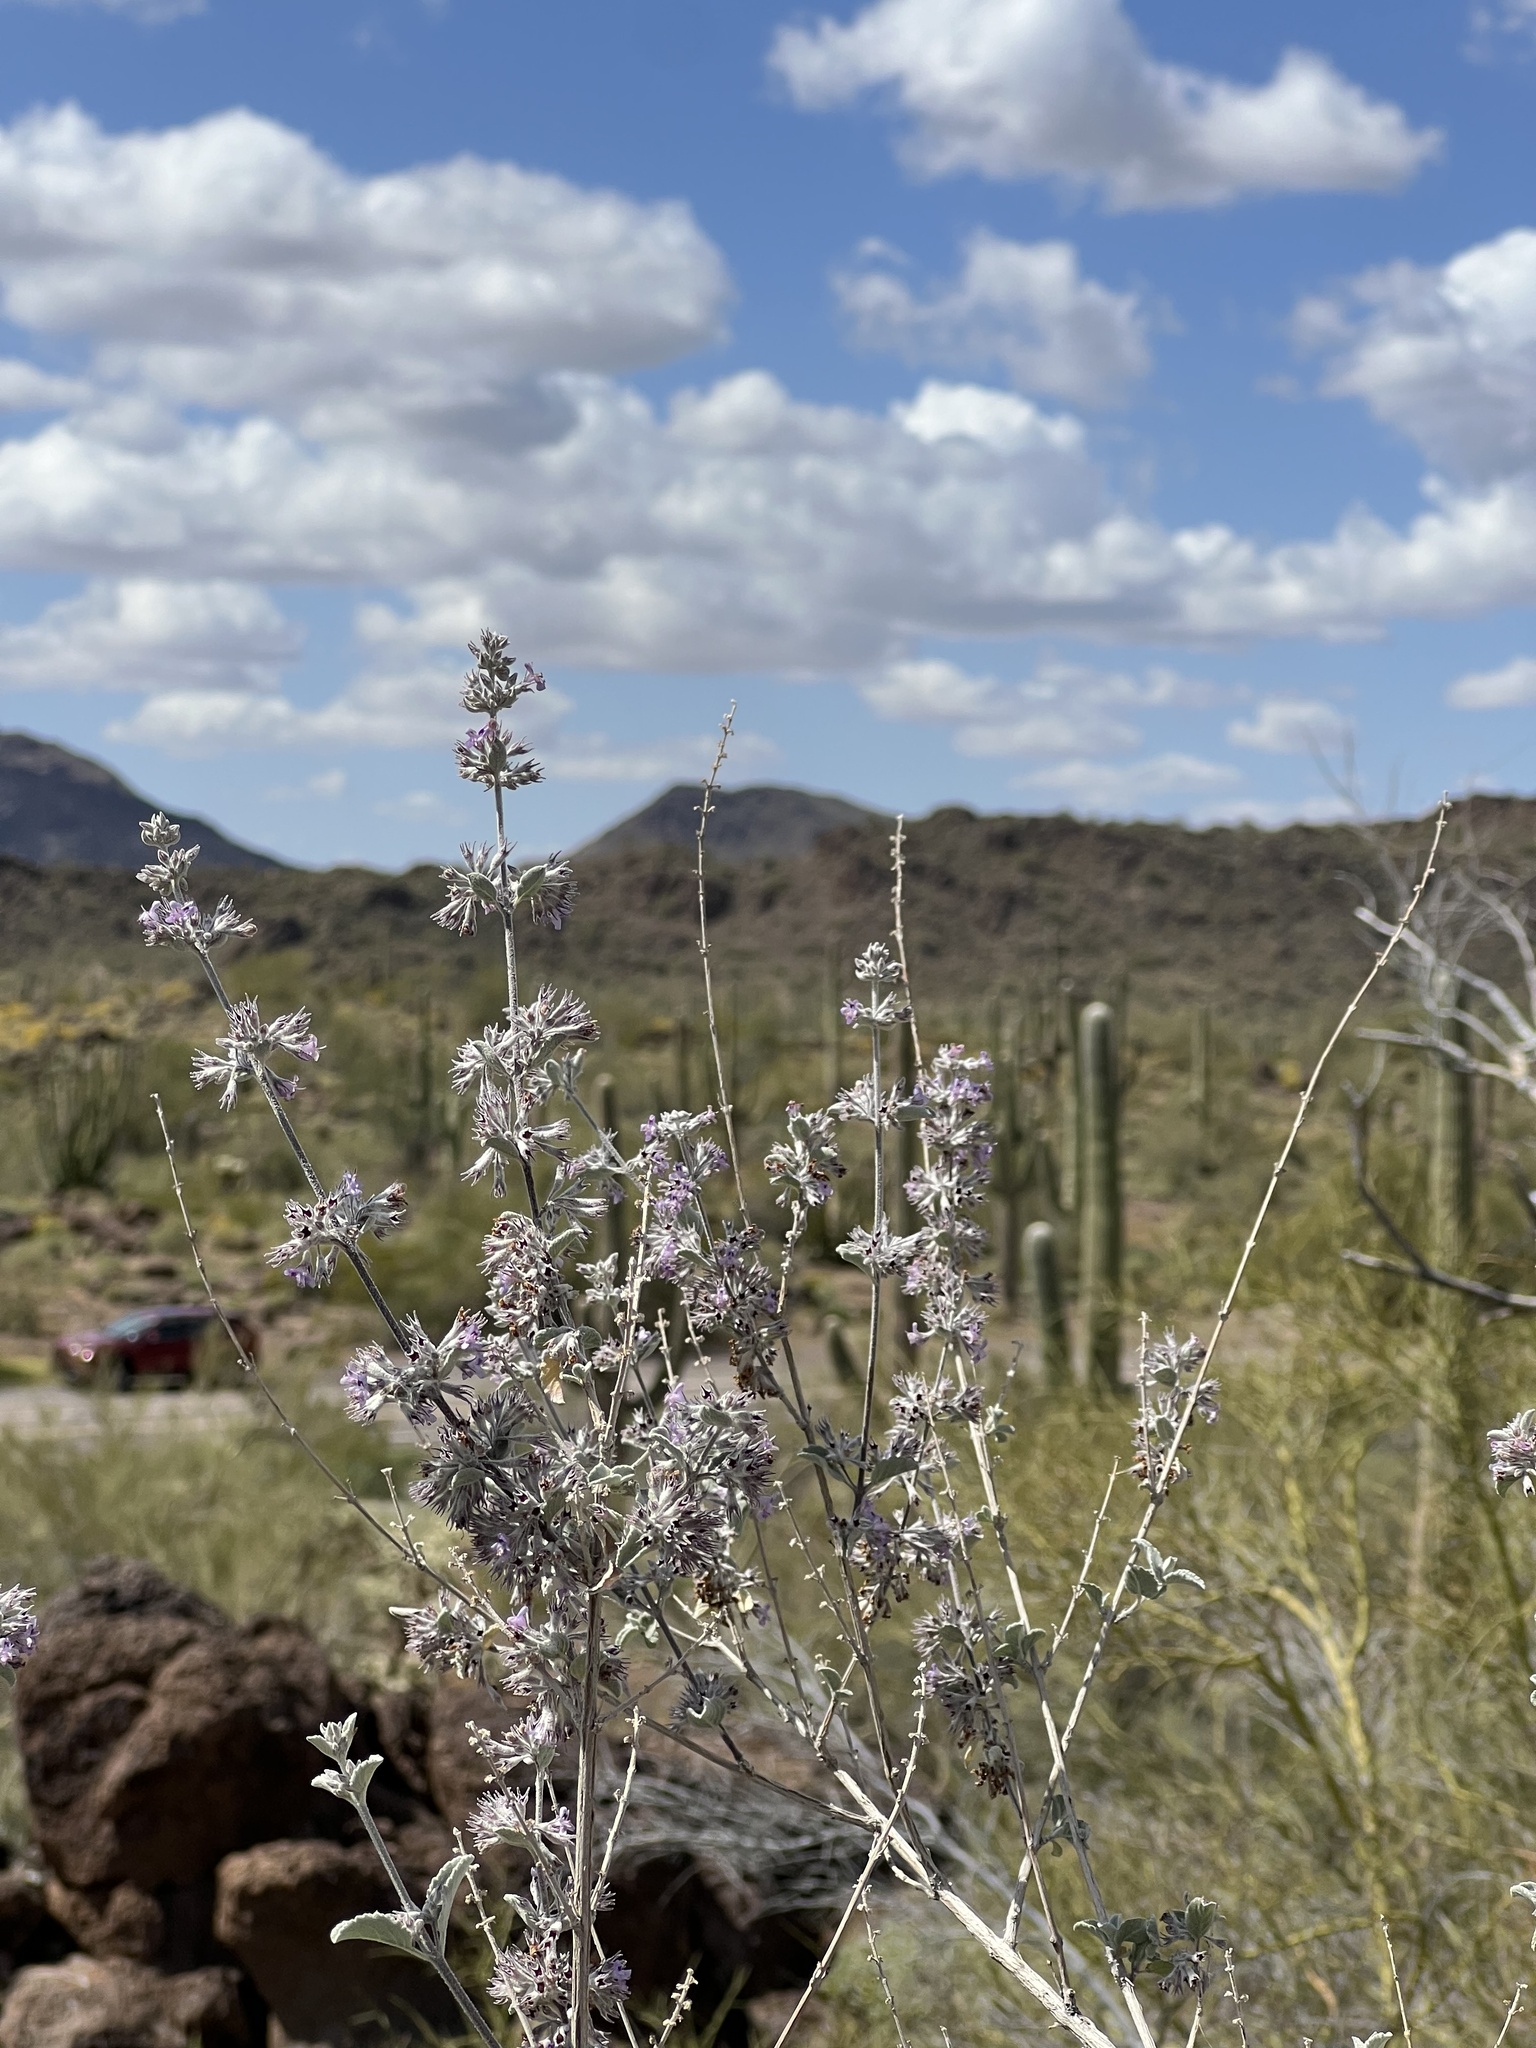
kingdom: Plantae
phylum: Tracheophyta
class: Magnoliopsida
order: Lamiales
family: Lamiaceae
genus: Condea
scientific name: Condea emoryi
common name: Chia
